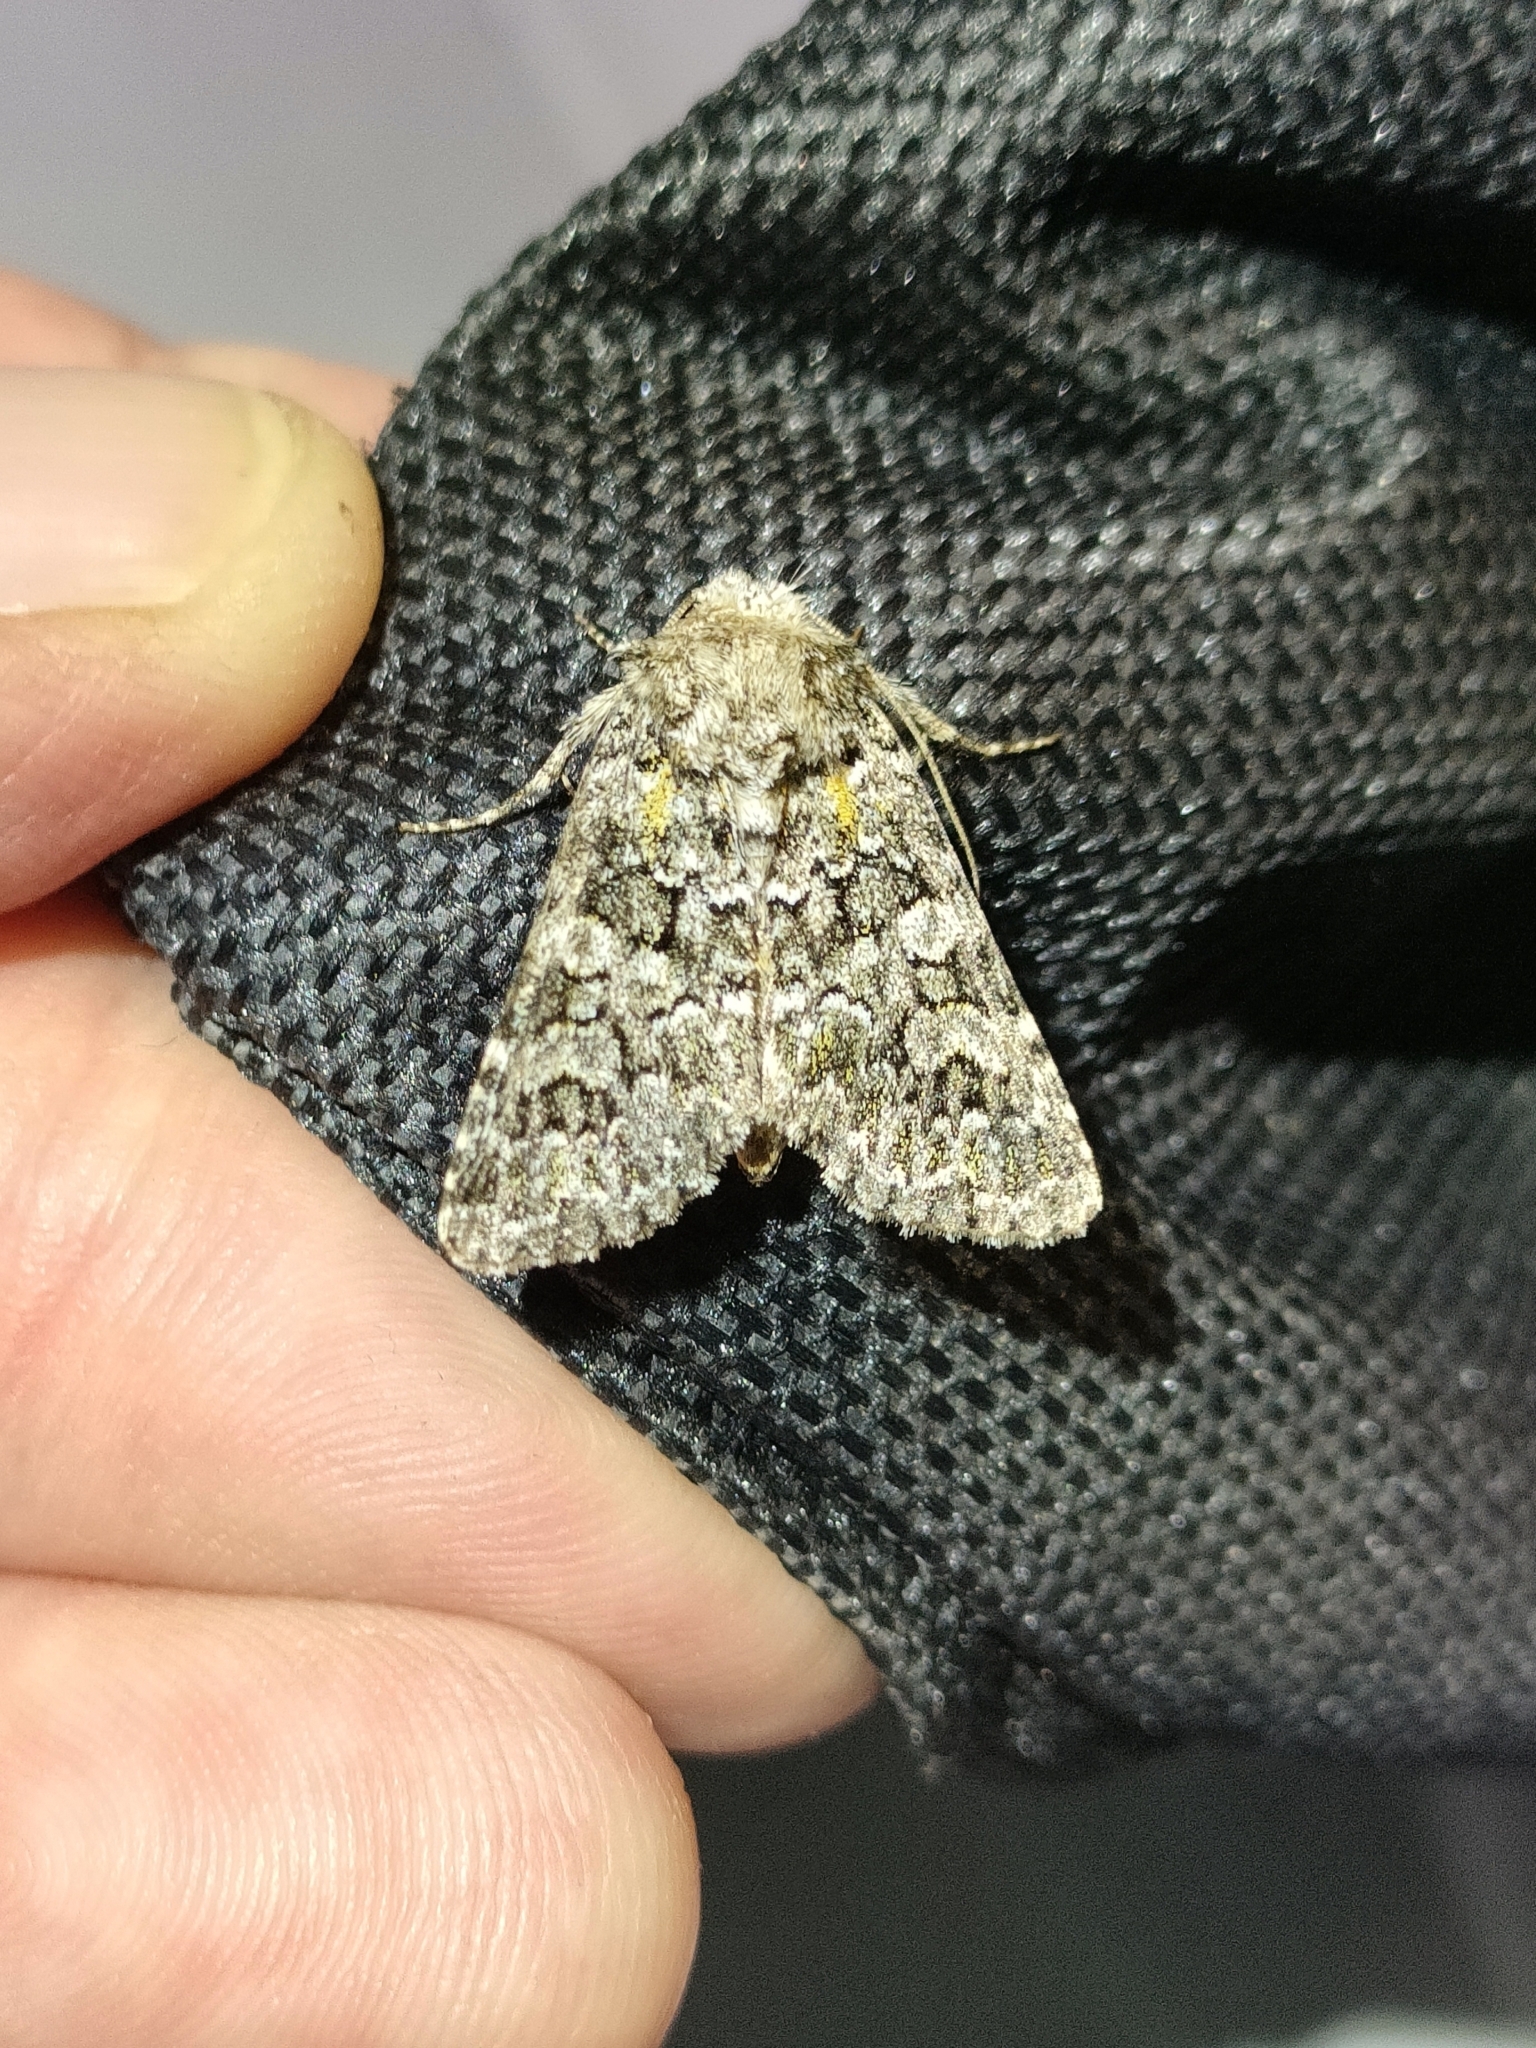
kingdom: Animalia
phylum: Arthropoda
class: Insecta
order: Lepidoptera
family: Noctuidae
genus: Hadena
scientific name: Hadena filograna
